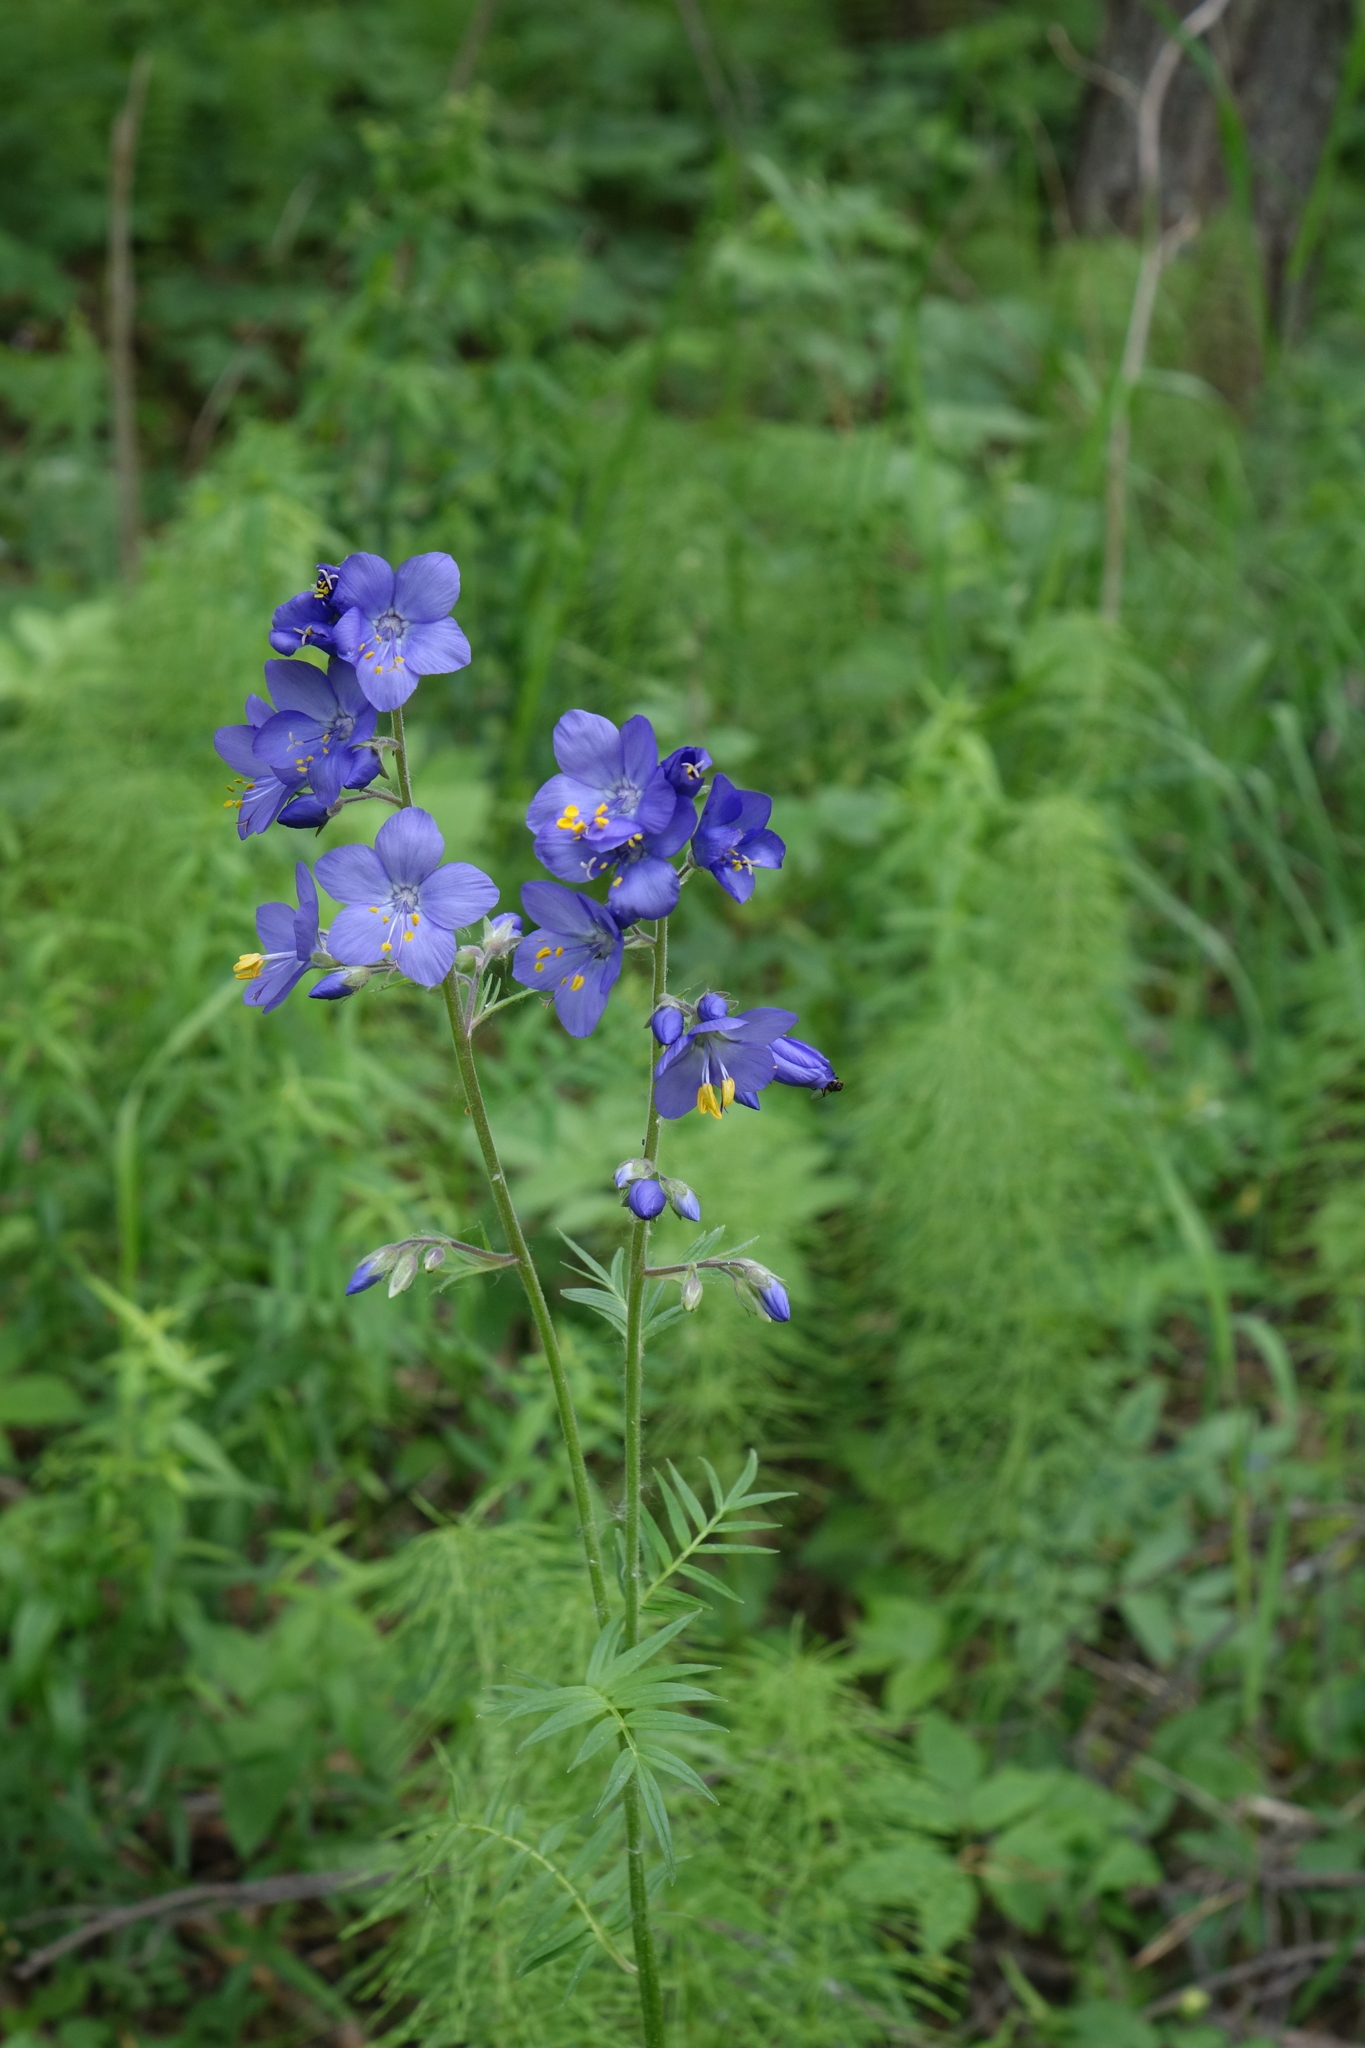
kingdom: Plantae
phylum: Tracheophyta
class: Magnoliopsida
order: Ericales
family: Polemoniaceae
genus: Polemonium
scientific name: Polemonium caeruleum
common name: Jacob's-ladder
